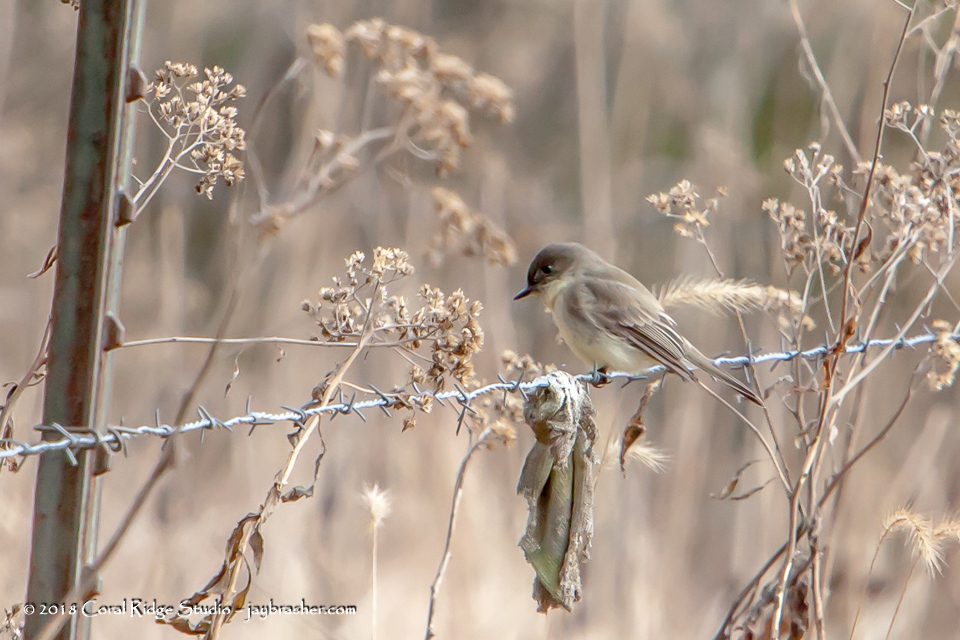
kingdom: Animalia
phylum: Chordata
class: Aves
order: Passeriformes
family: Tyrannidae
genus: Sayornis
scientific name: Sayornis phoebe
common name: Eastern phoebe
